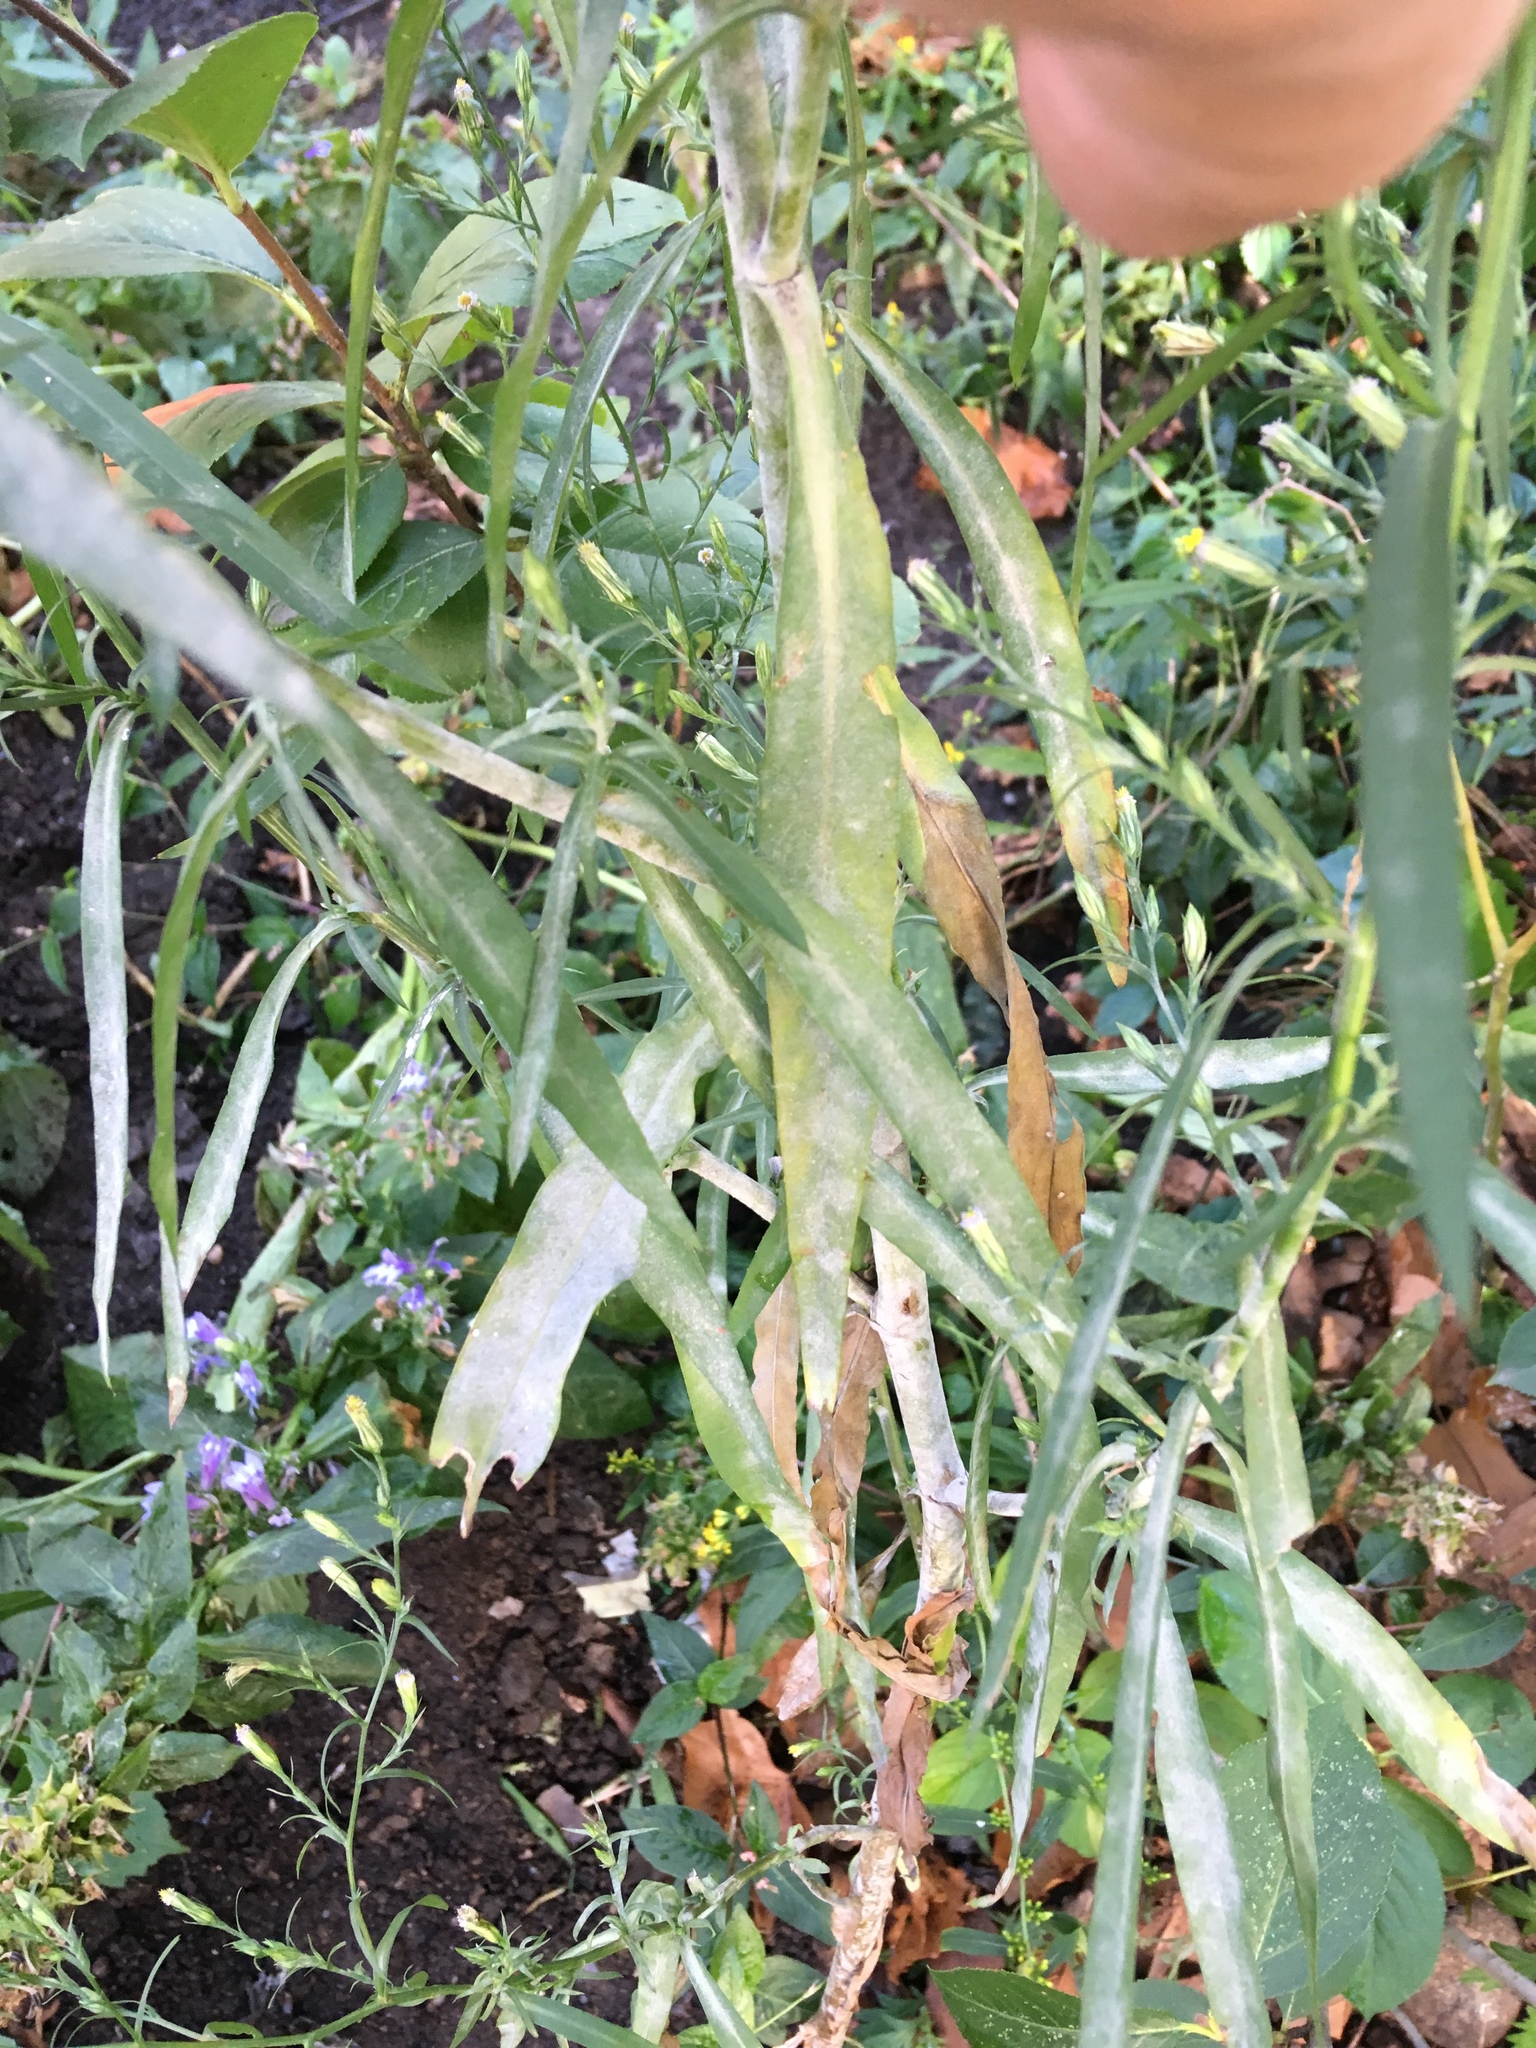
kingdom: Plantae
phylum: Tracheophyta
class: Magnoliopsida
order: Asterales
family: Asteraceae
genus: Symphyotrichum
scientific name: Symphyotrichum subulatum
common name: Annual saltmarsh aster
